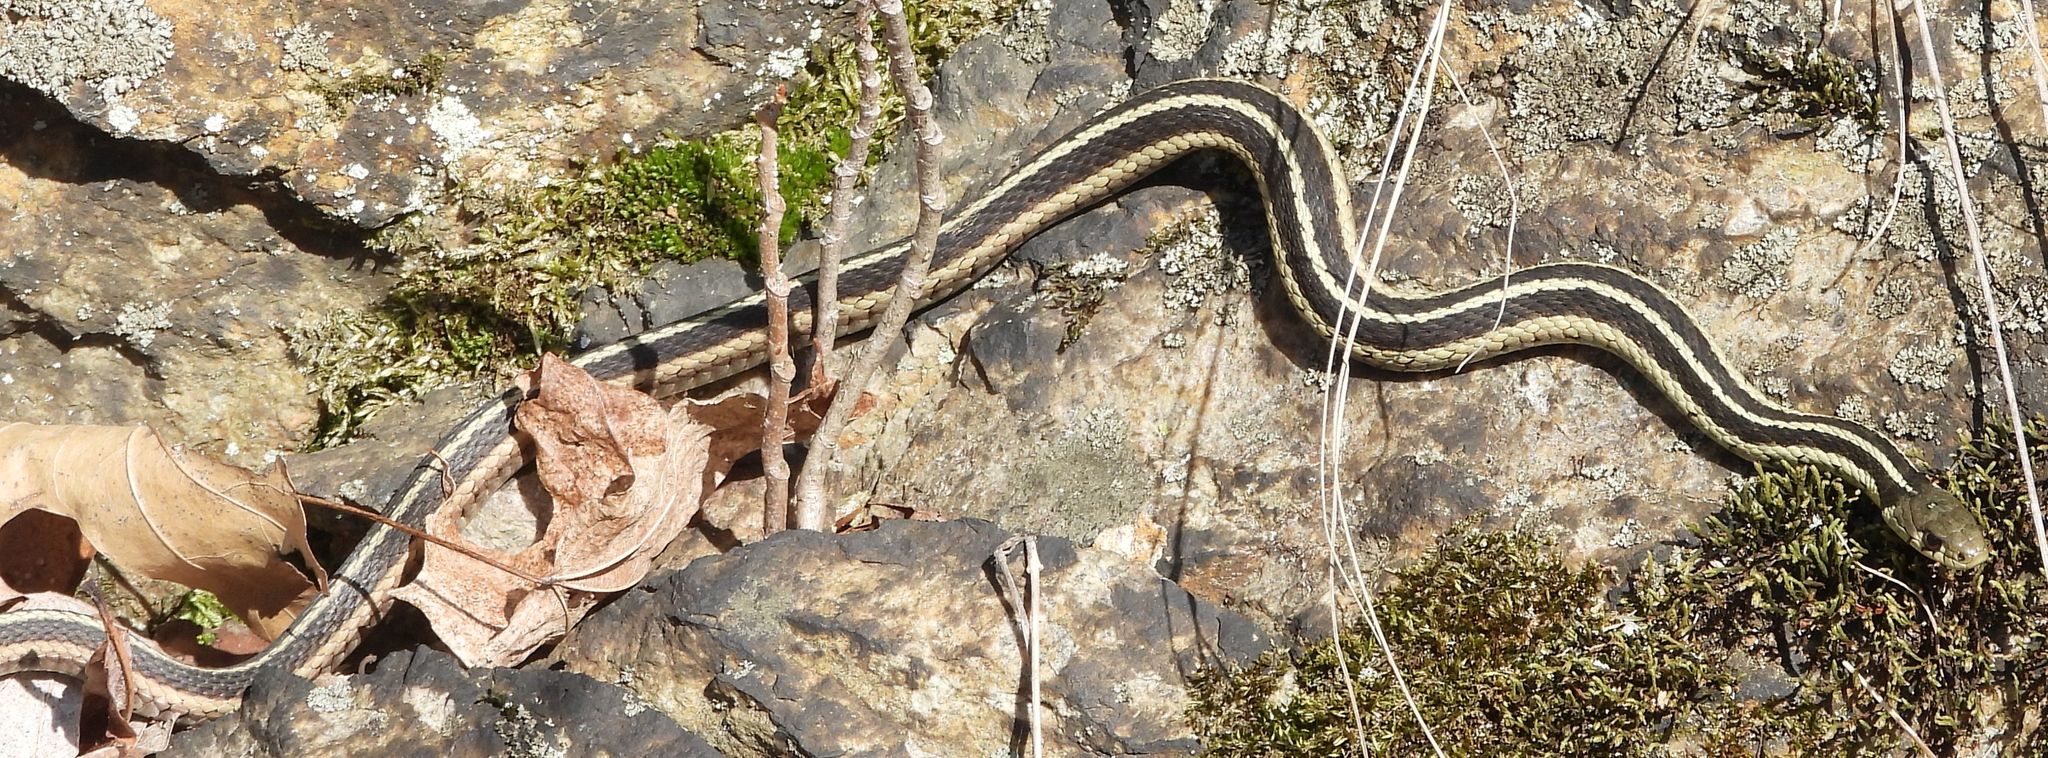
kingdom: Animalia
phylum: Chordata
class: Squamata
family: Colubridae
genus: Thamnophis
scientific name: Thamnophis sirtalis
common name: Common garter snake
